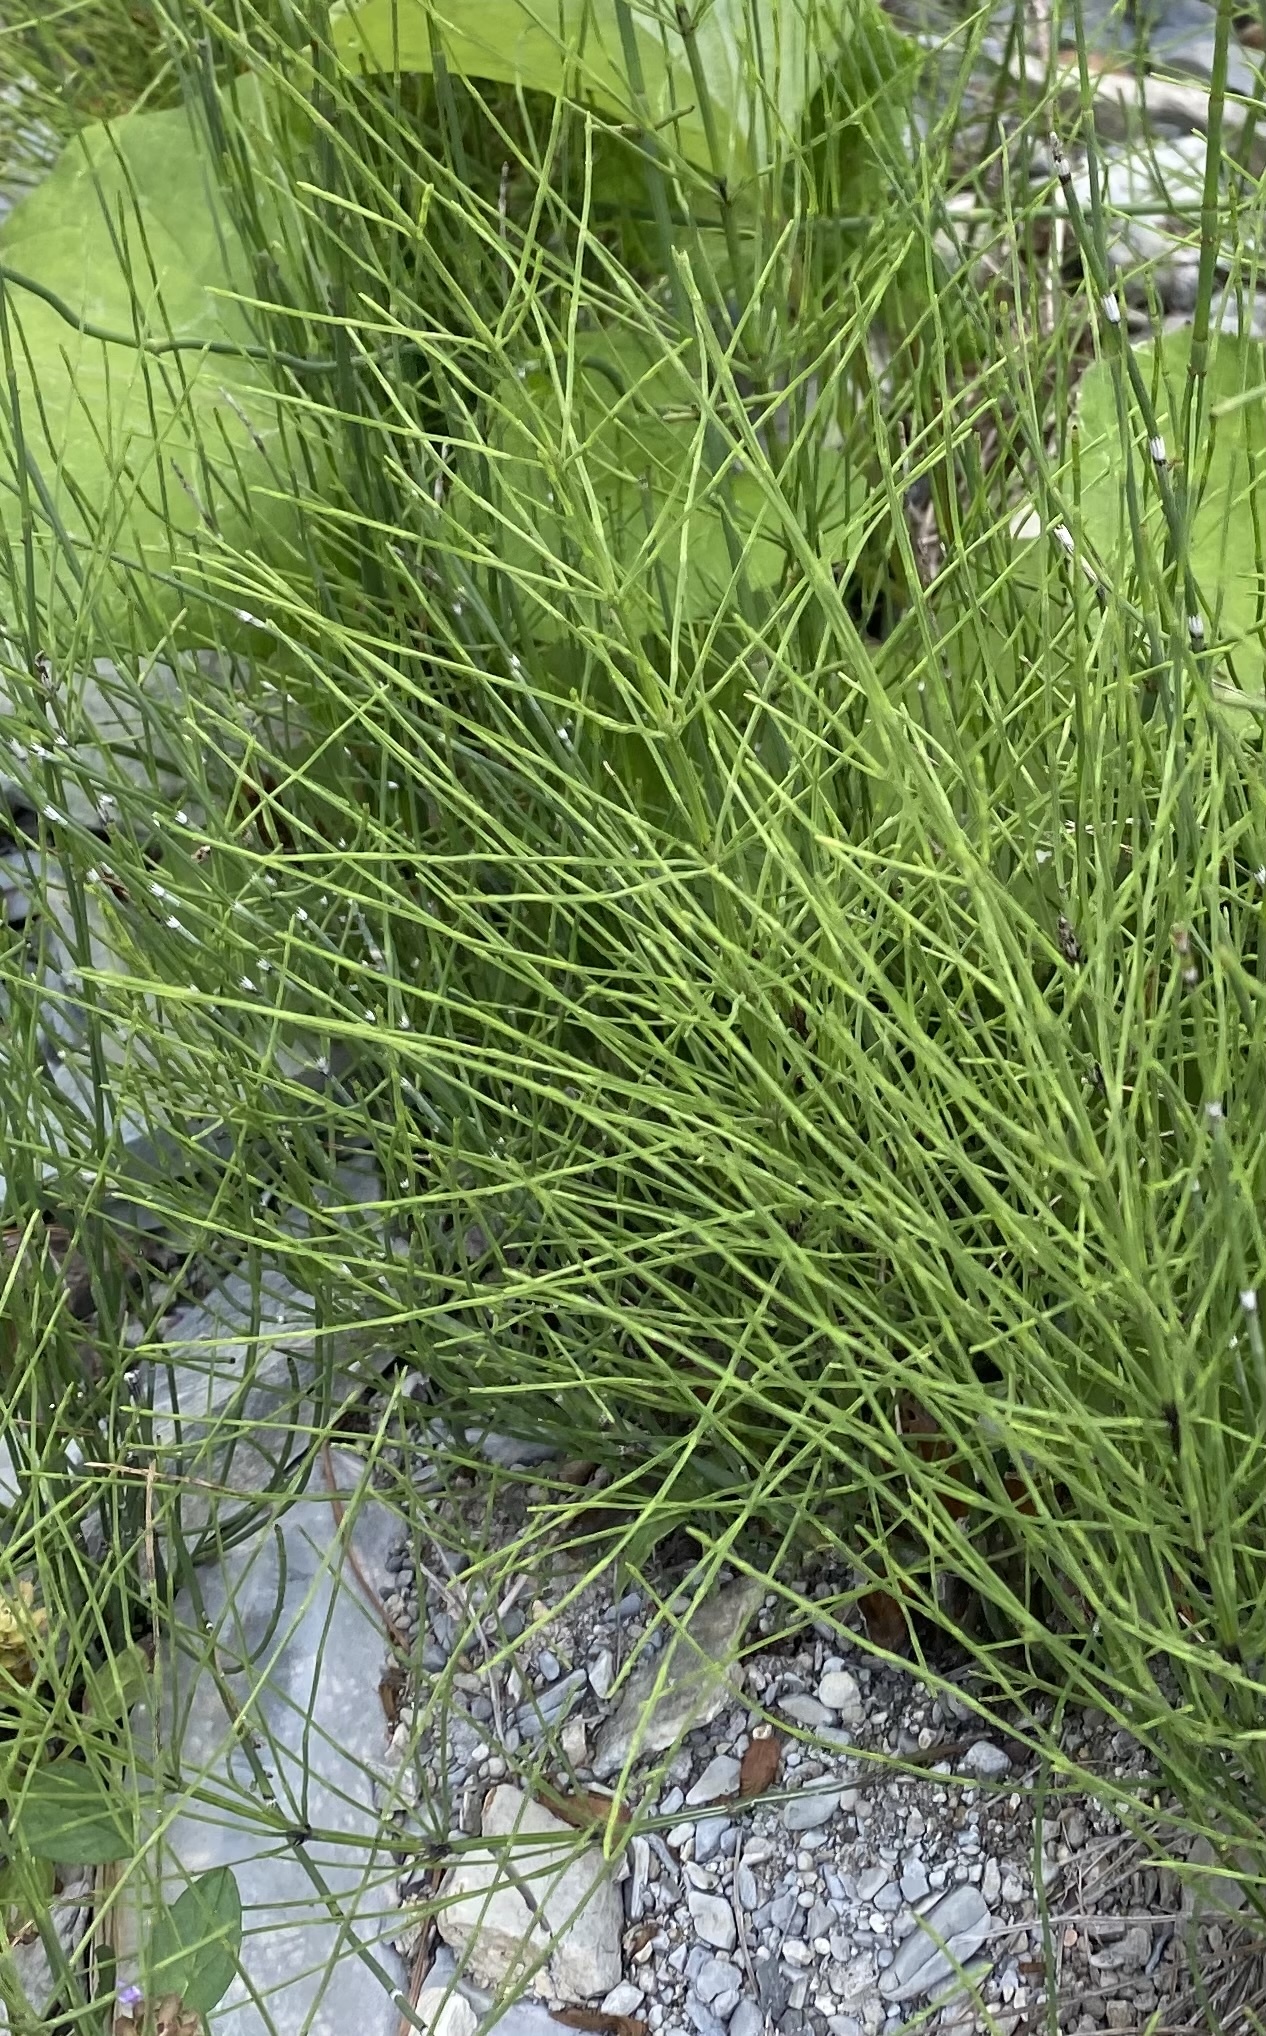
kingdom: Plantae
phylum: Tracheophyta
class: Polypodiopsida
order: Equisetales
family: Equisetaceae
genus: Equisetum
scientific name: Equisetum arvense
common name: Field horsetail
